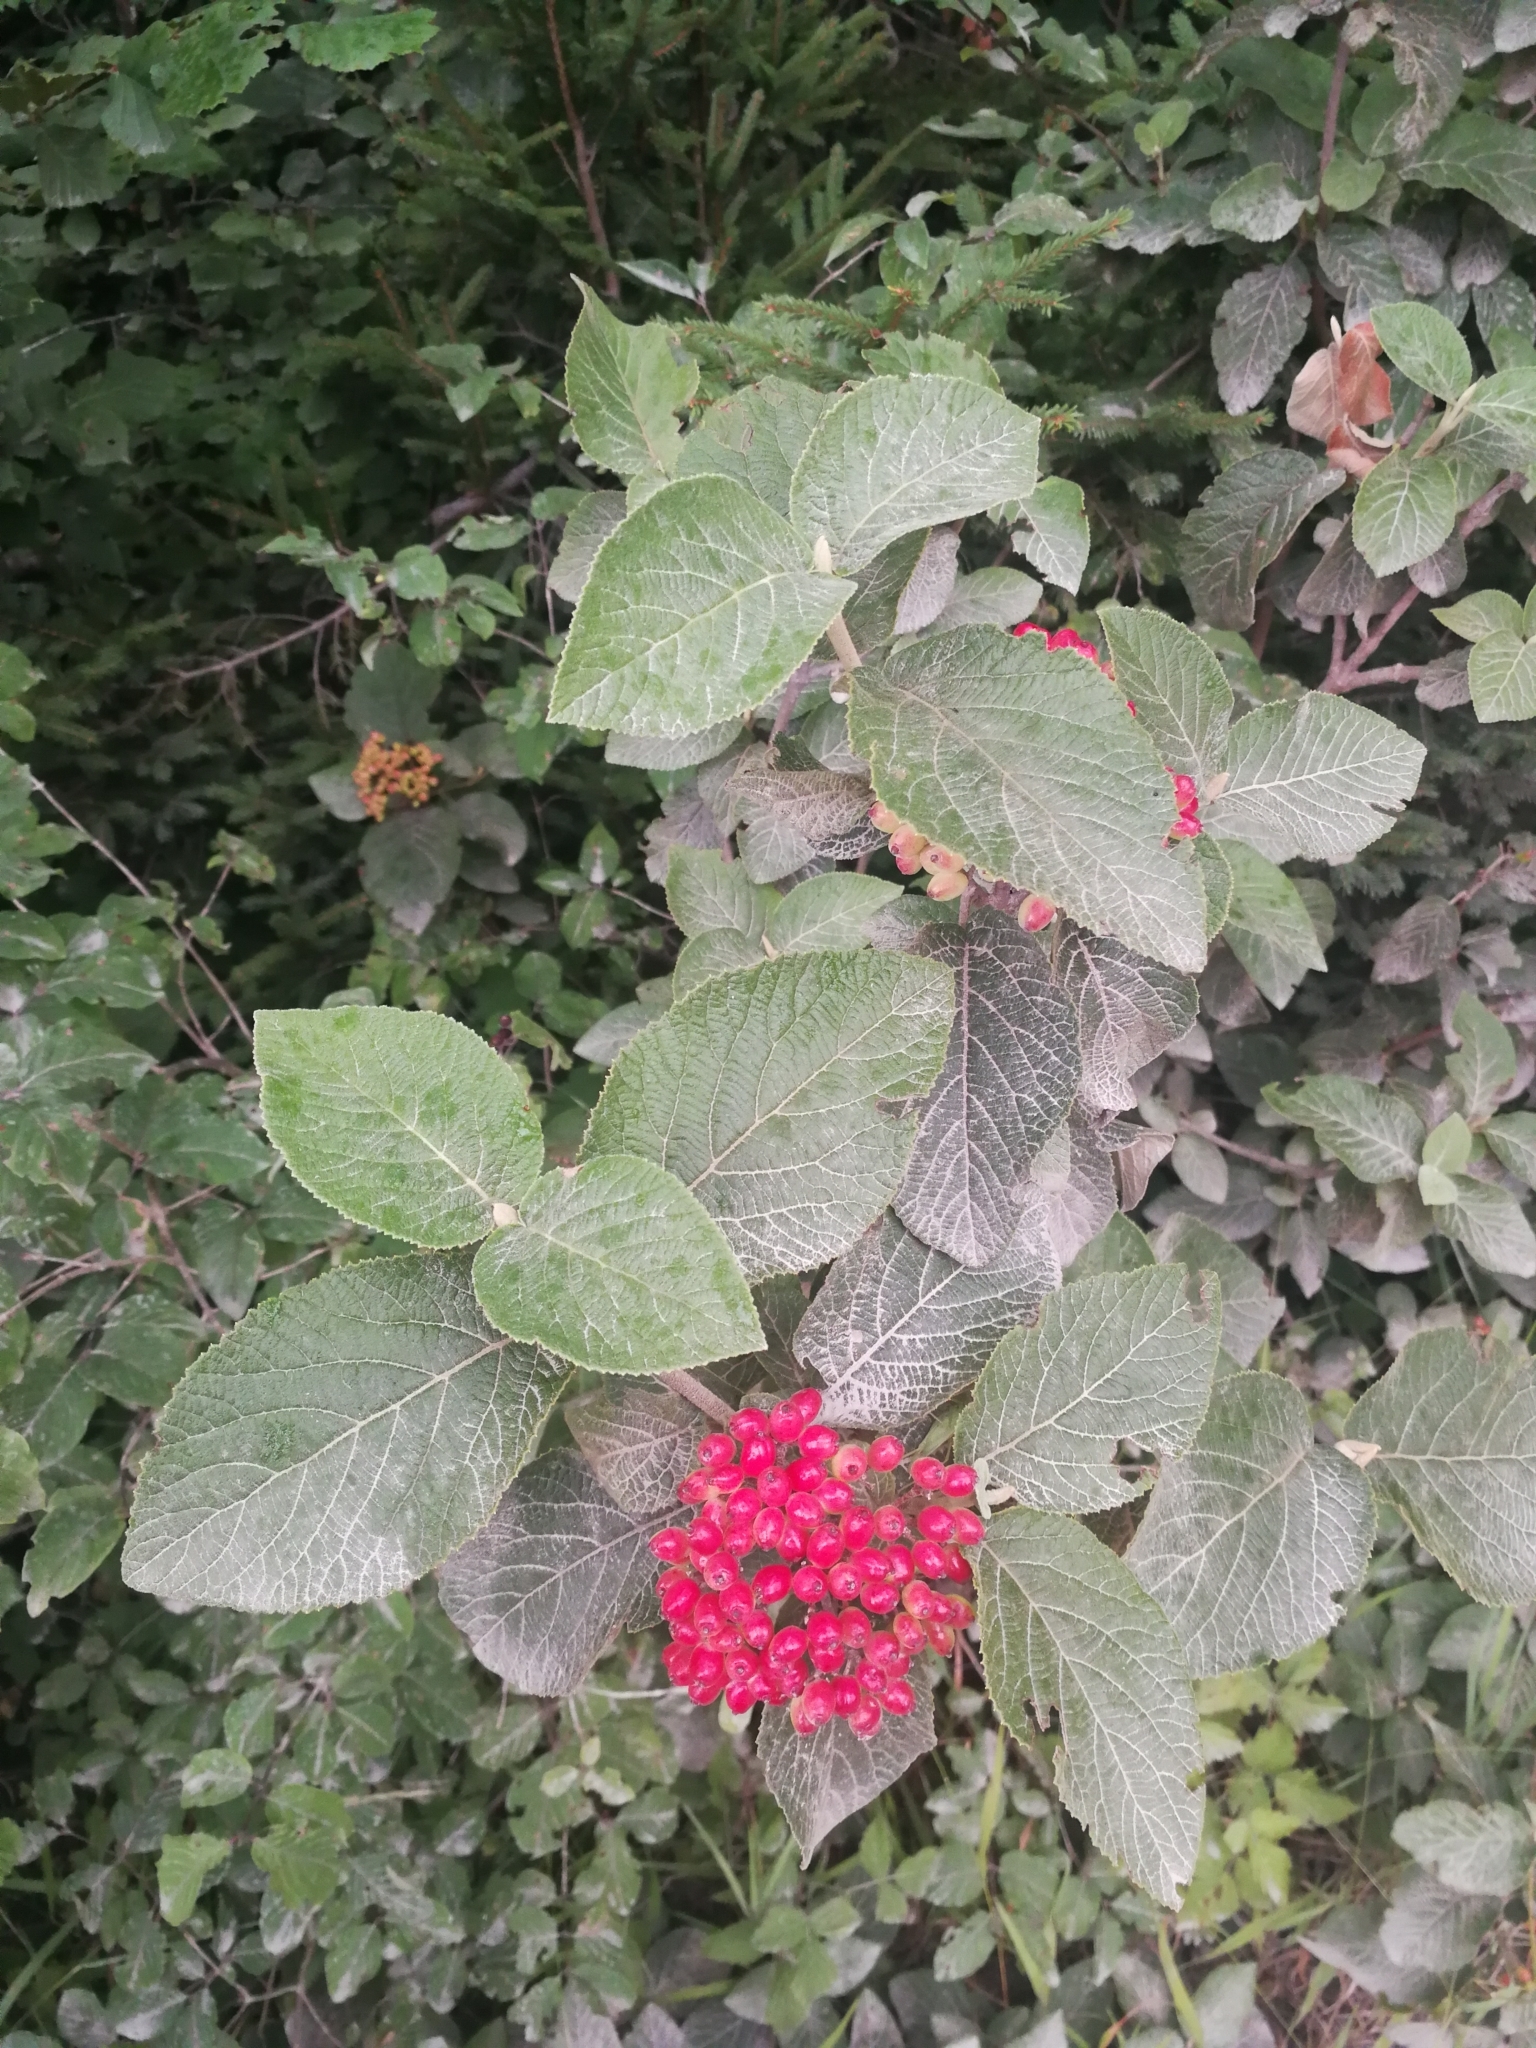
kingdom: Plantae
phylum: Tracheophyta
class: Magnoliopsida
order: Dipsacales
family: Viburnaceae
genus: Viburnum
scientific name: Viburnum lantana
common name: Wayfaring tree
